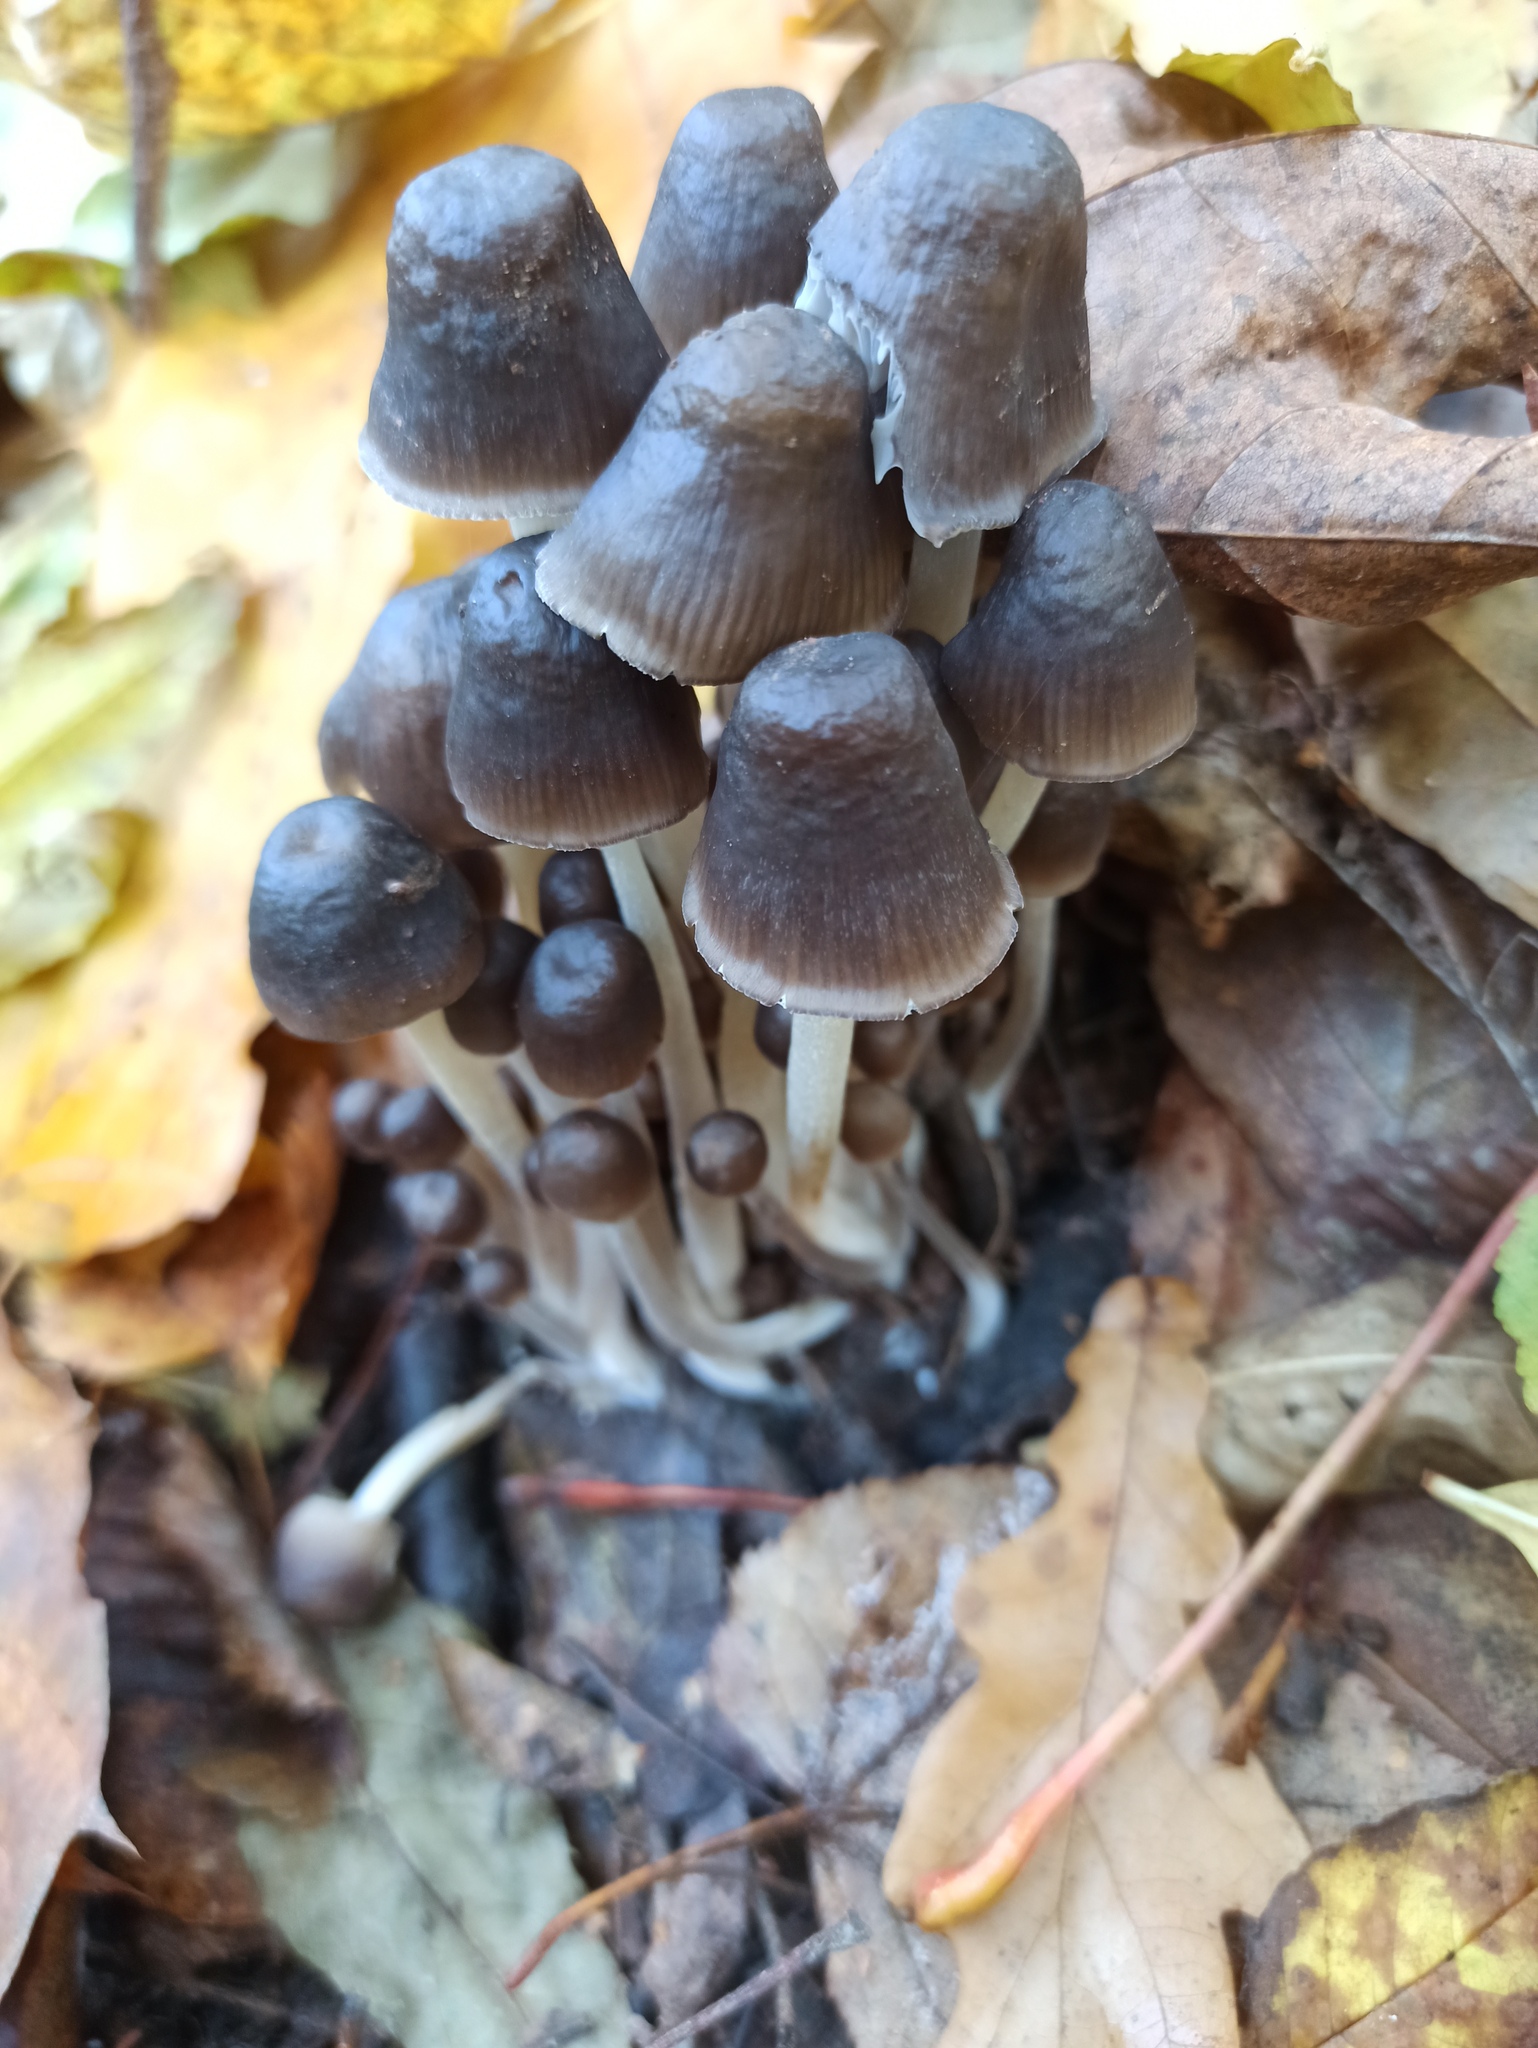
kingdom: Fungi
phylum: Basidiomycota
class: Agaricomycetes
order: Agaricales
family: Mycenaceae
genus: Mycena
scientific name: Mycena leptocephala
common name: Nitrous bonnet
